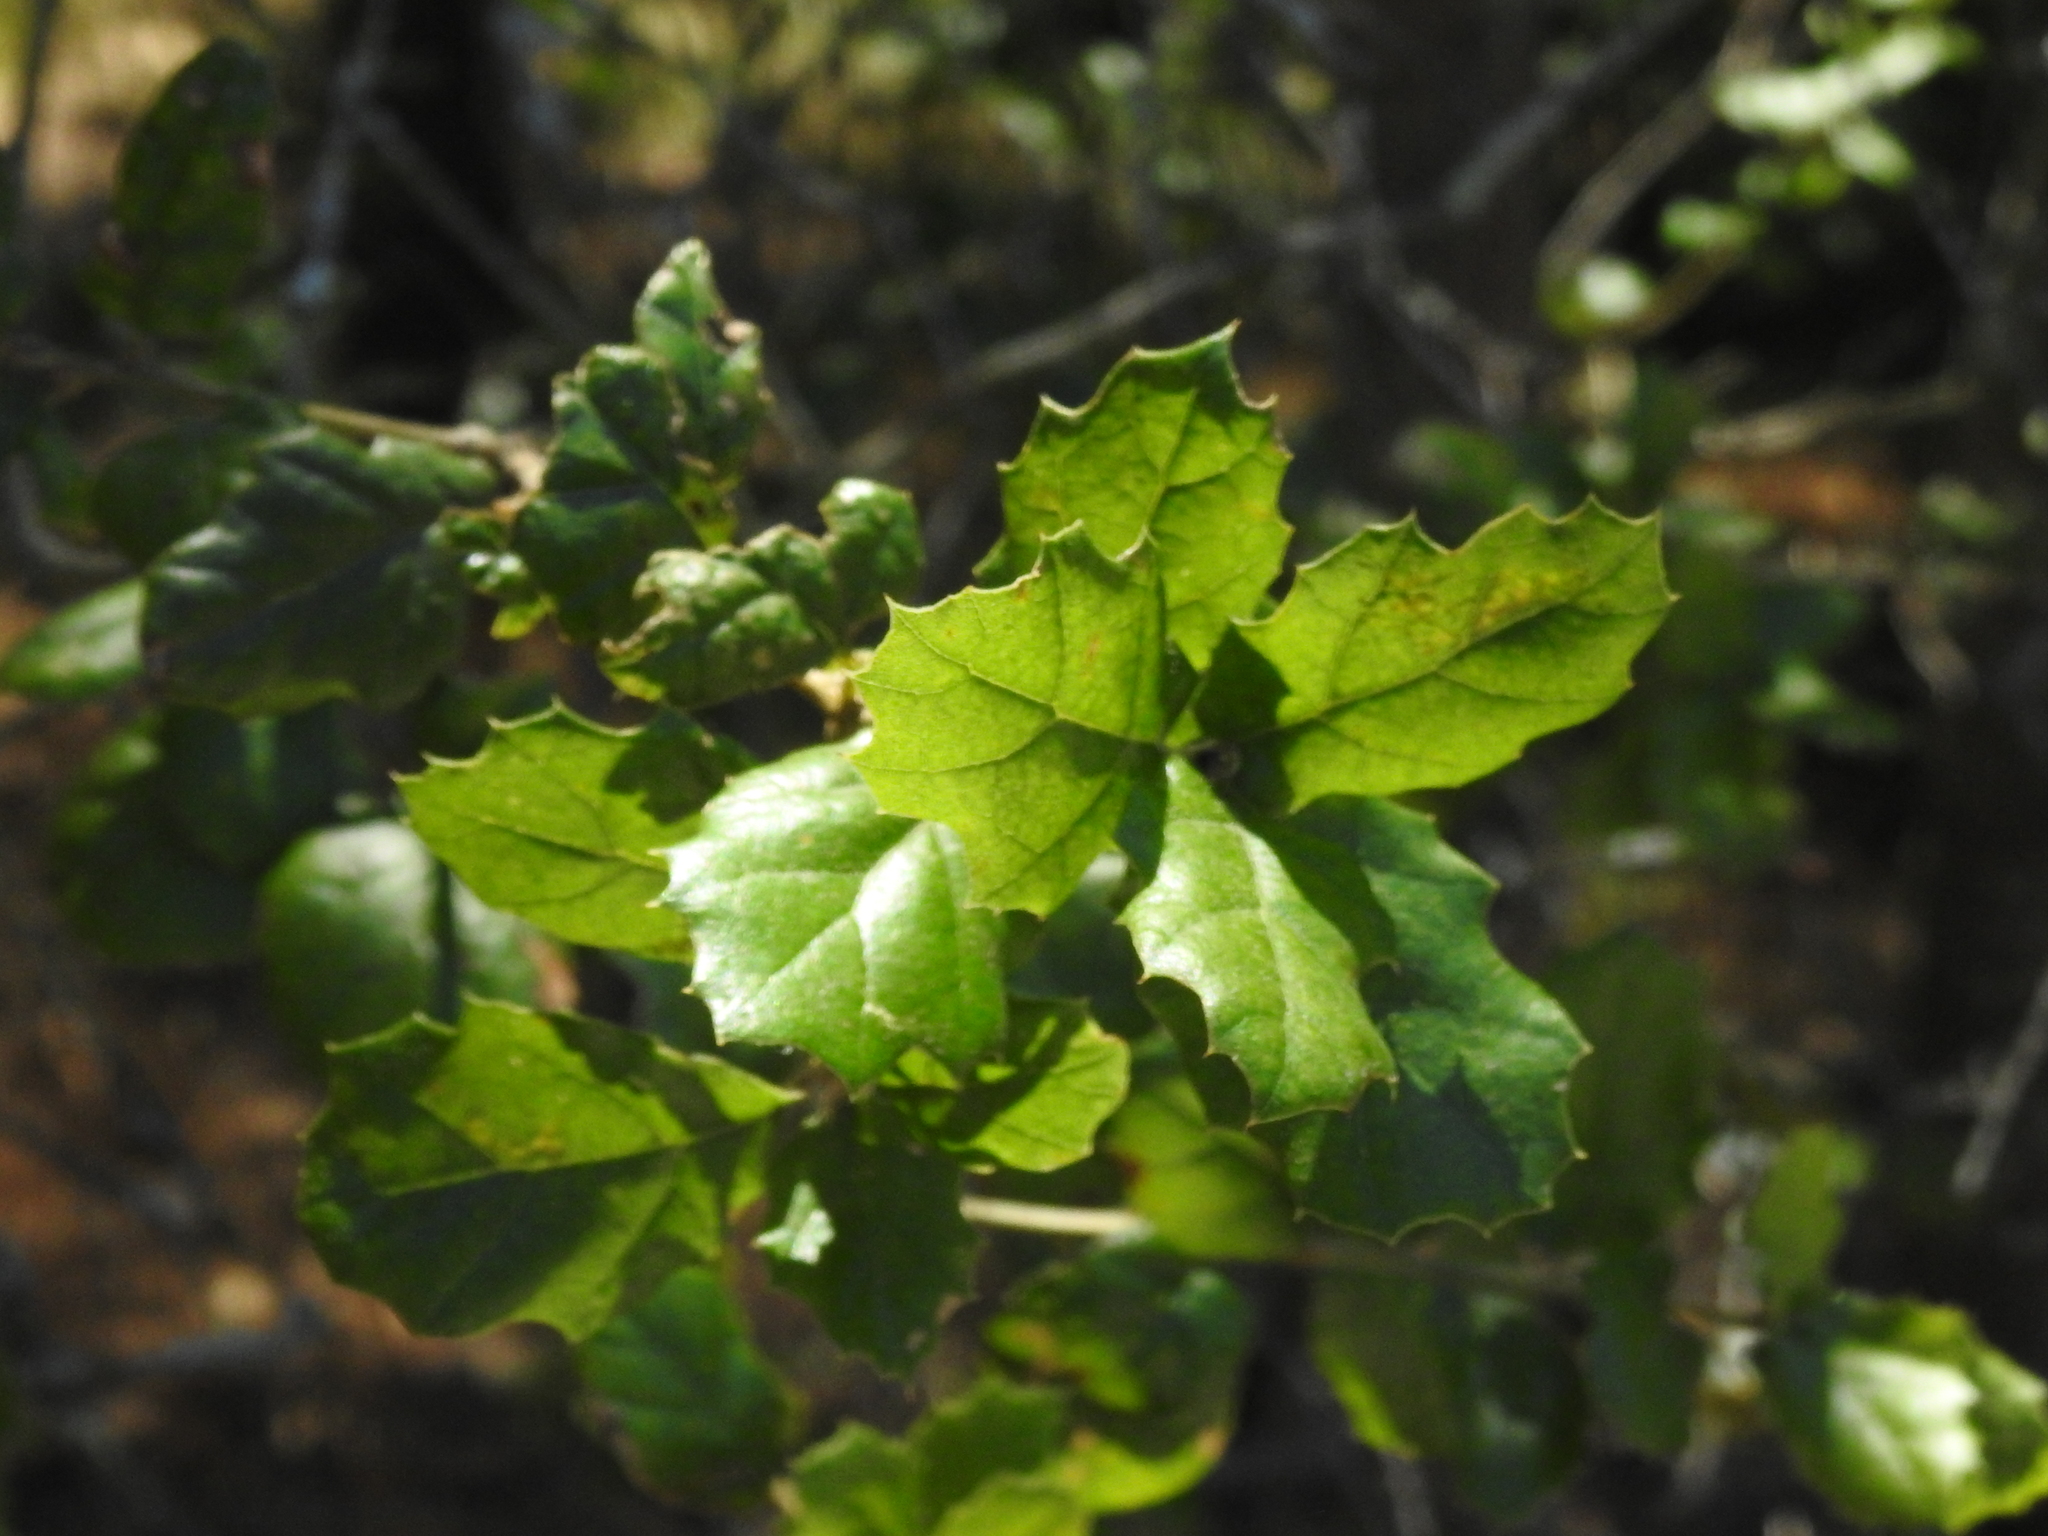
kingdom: Plantae
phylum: Tracheophyta
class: Magnoliopsida
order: Fagales
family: Fagaceae
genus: Quercus
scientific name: Quercus agrifolia
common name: California live oak
